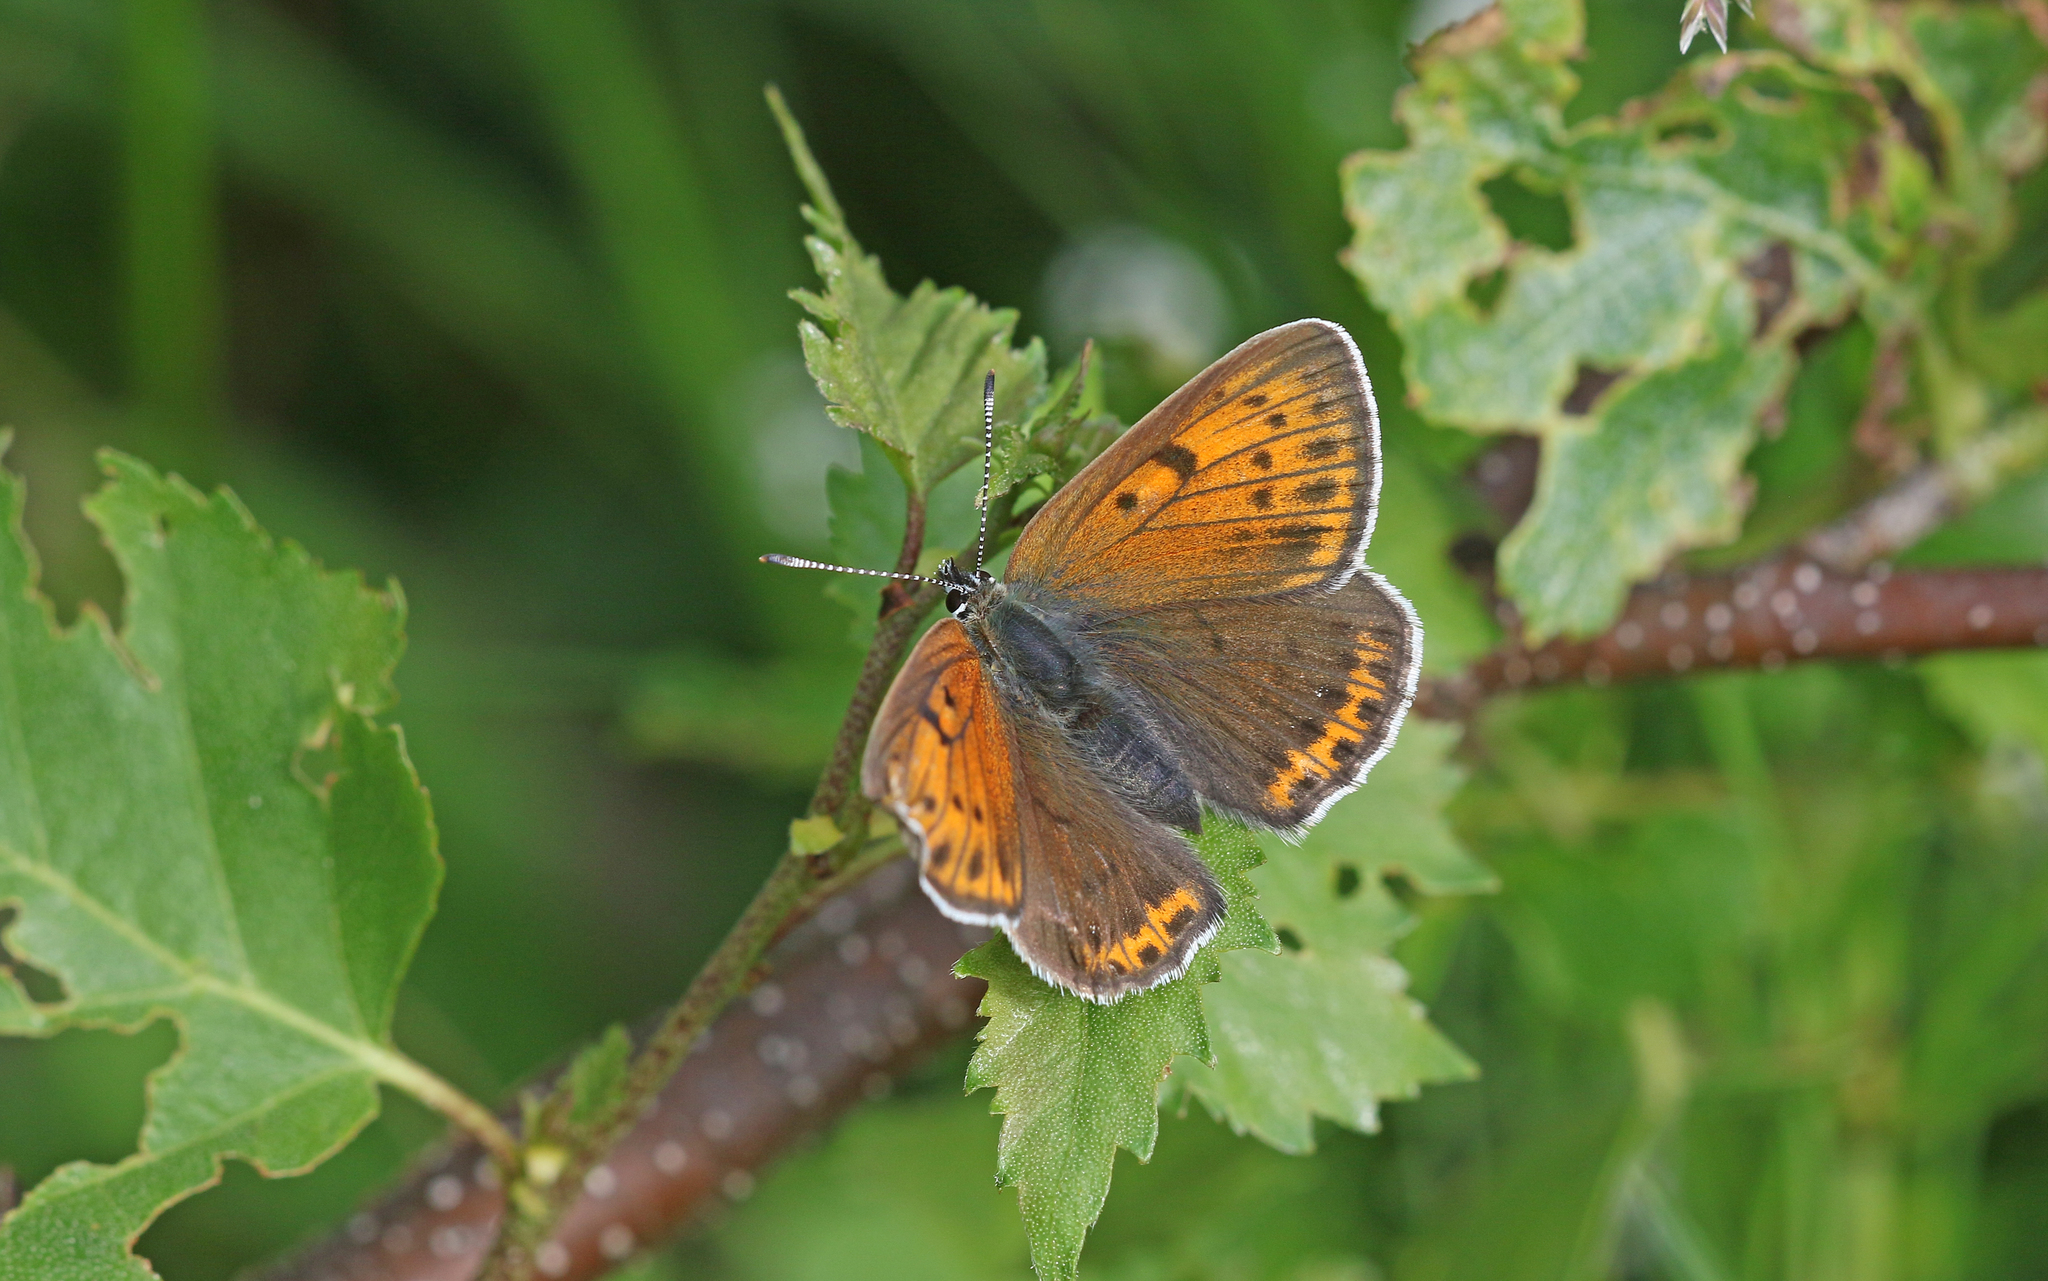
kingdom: Animalia
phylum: Arthropoda
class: Insecta
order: Lepidoptera
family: Lycaenidae
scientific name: Lycaenidae
